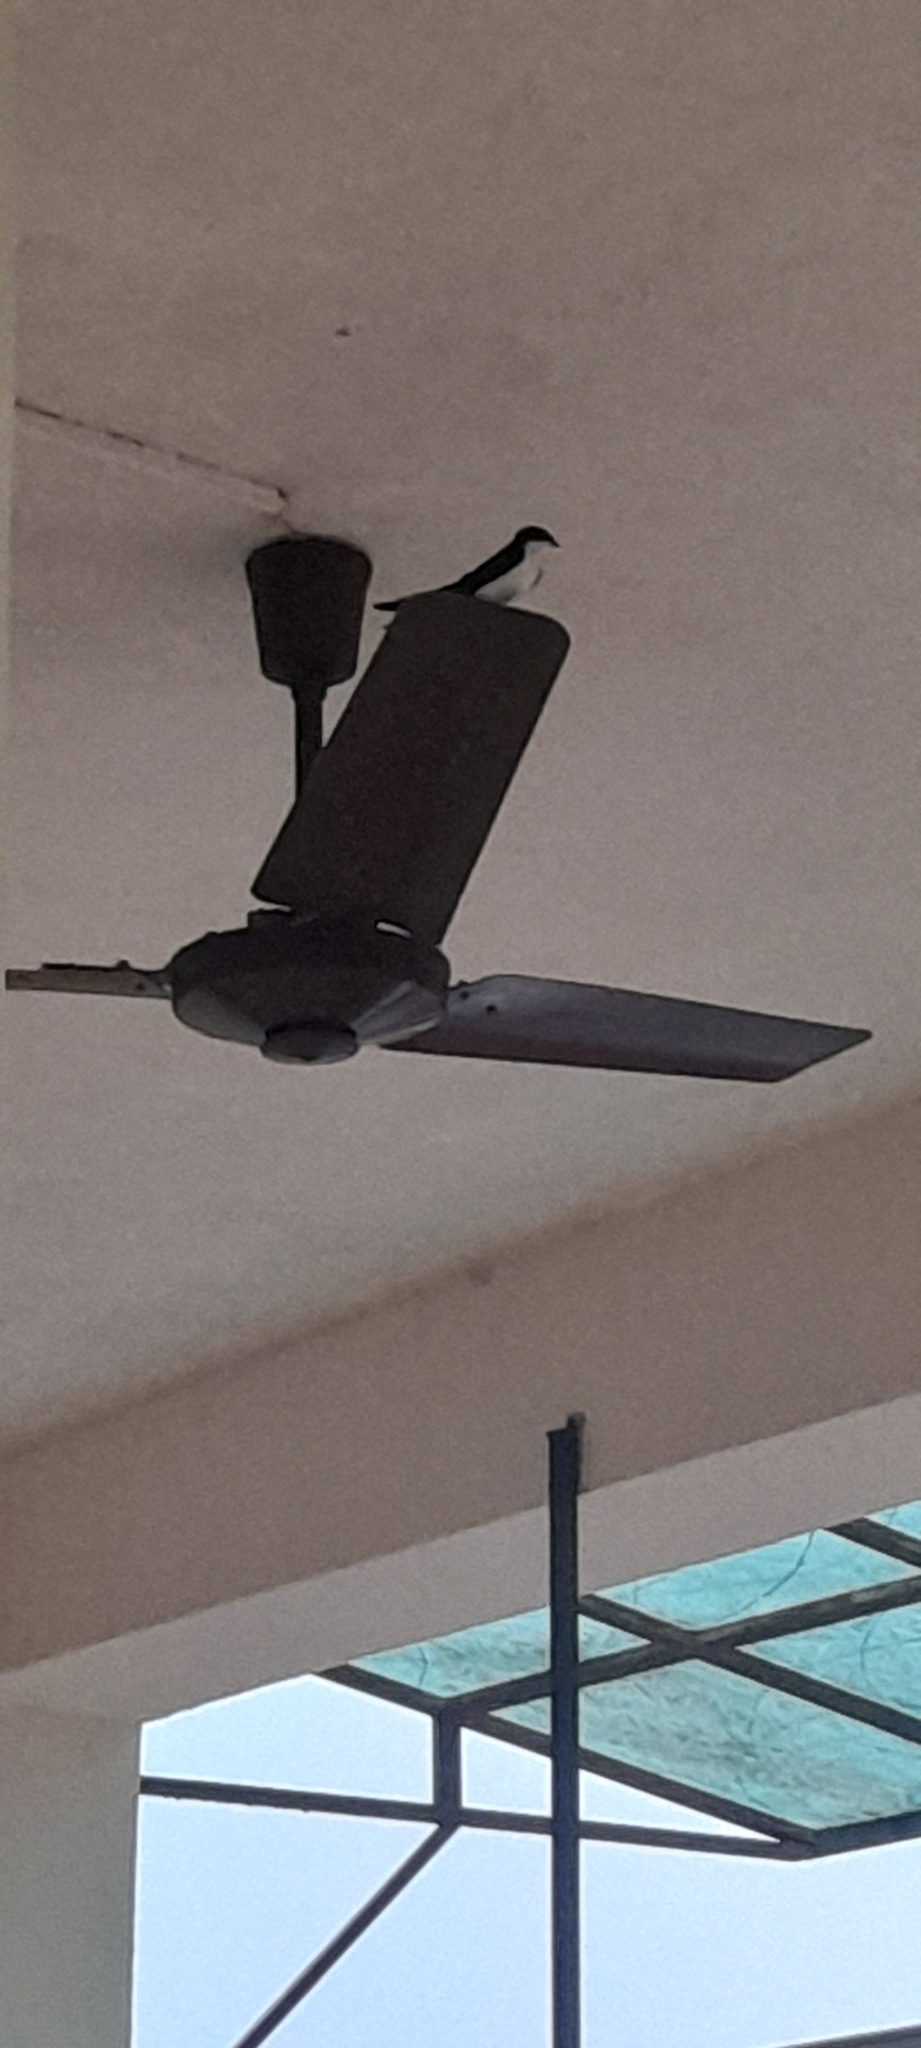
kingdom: Animalia
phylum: Chordata
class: Aves
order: Passeriformes
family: Hirundinidae
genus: Hirundo
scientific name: Hirundo smithii
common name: Wire-tailed swallow
